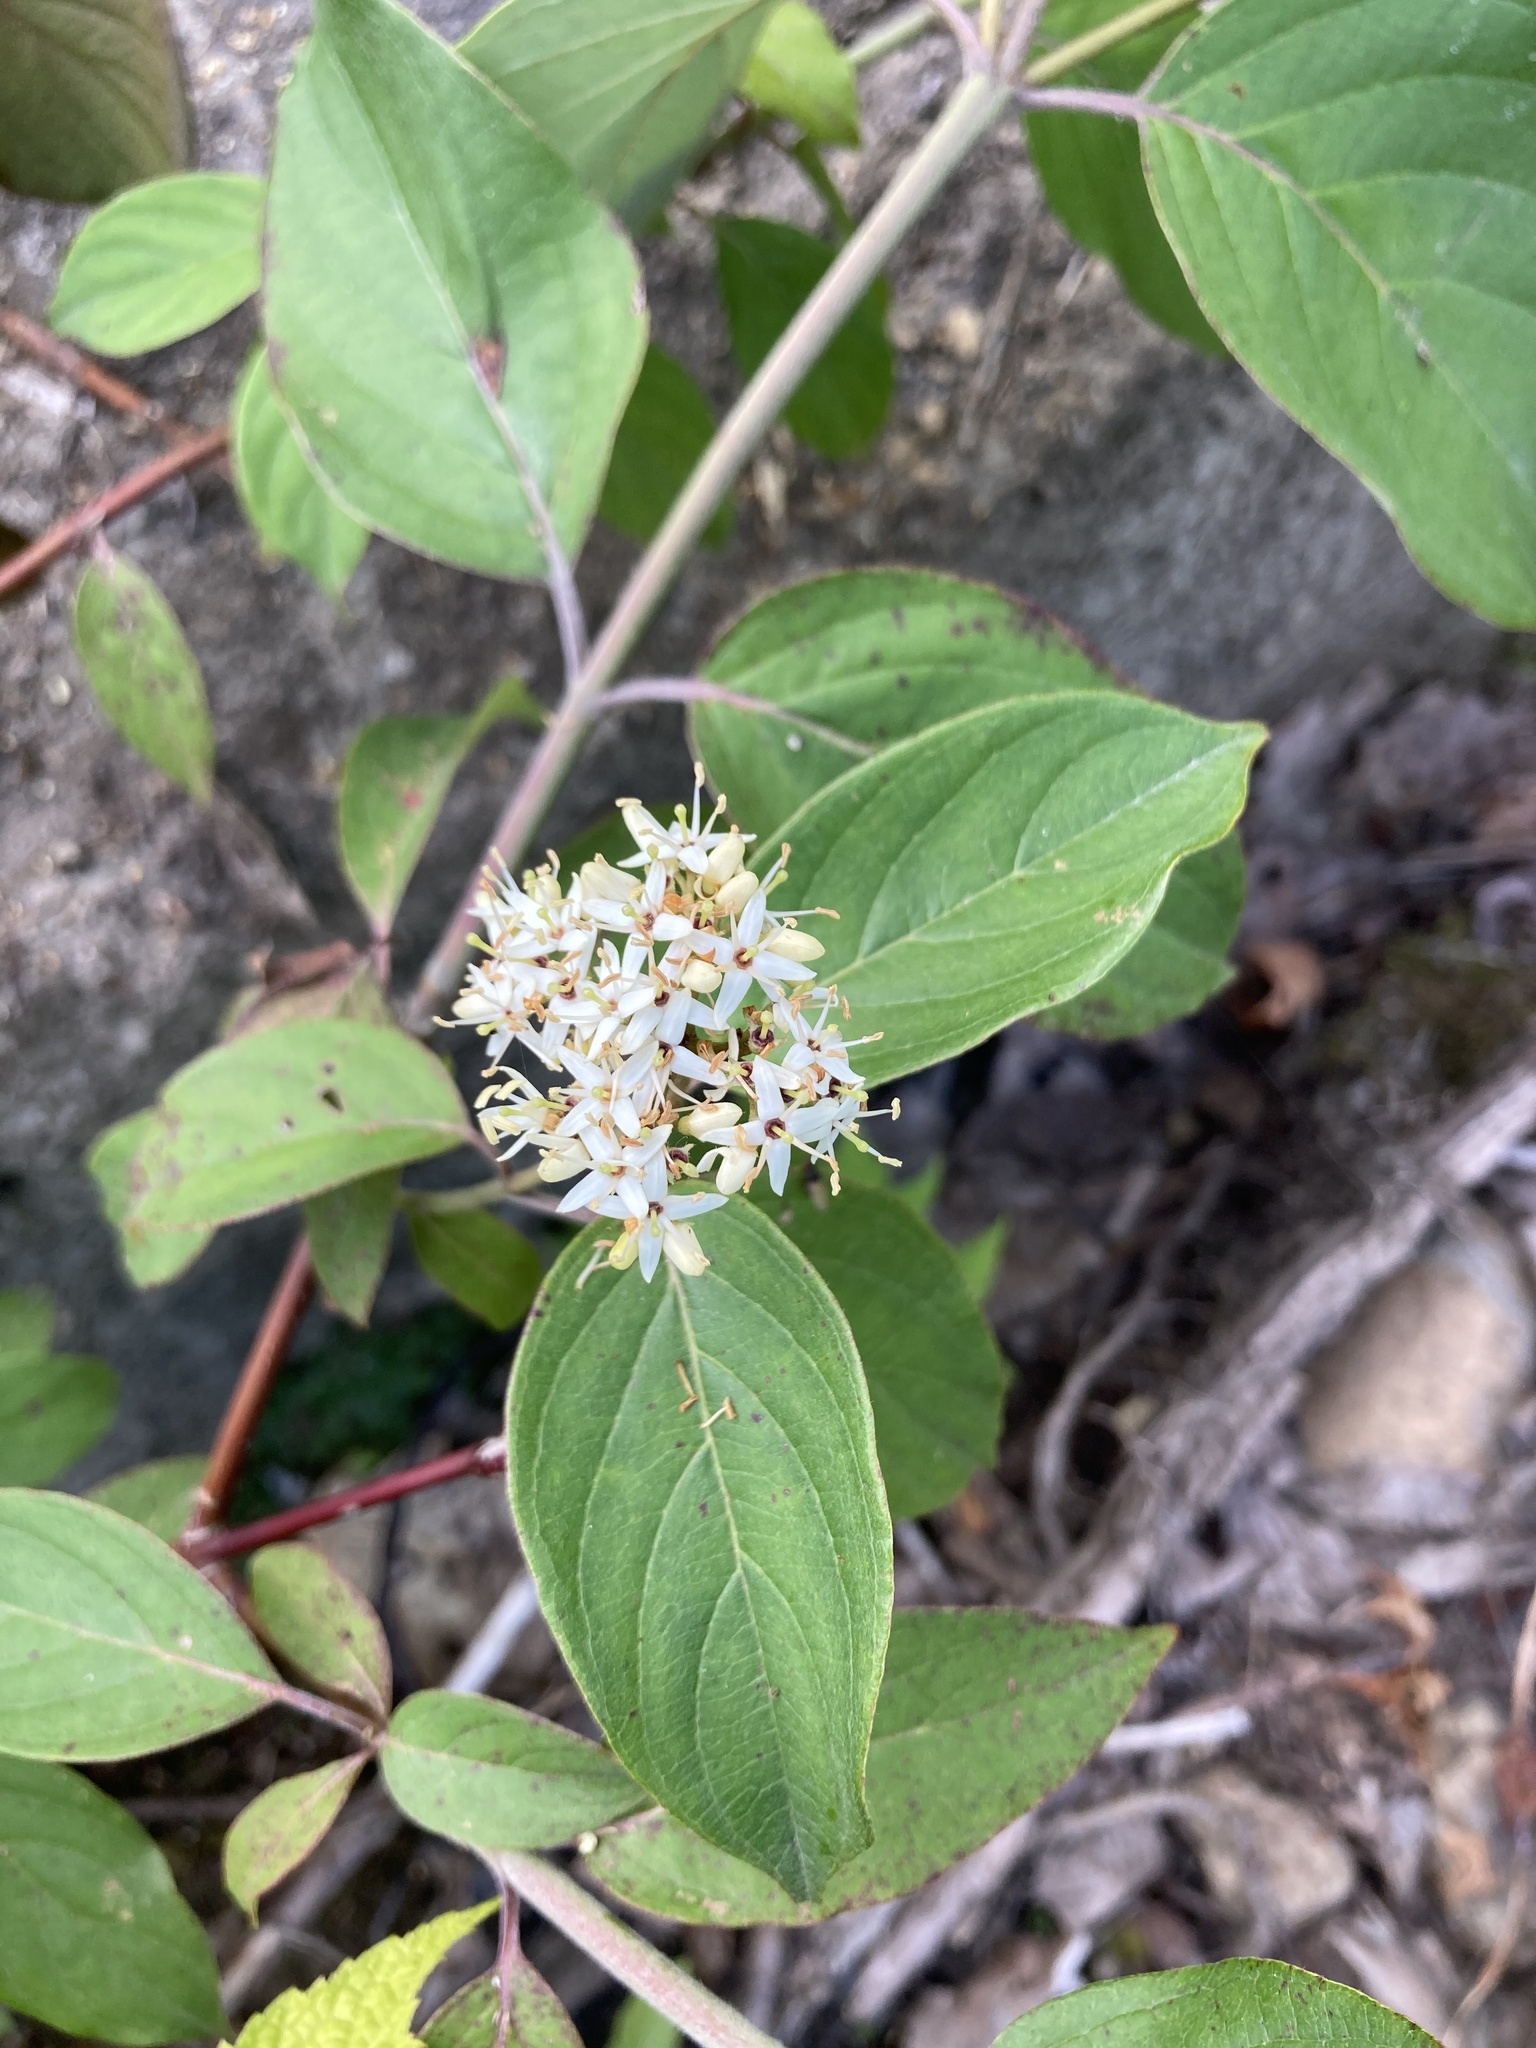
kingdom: Plantae
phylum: Tracheophyta
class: Magnoliopsida
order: Cornales
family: Cornaceae
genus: Cornus
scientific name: Cornus sericea
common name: Red-osier dogwood
